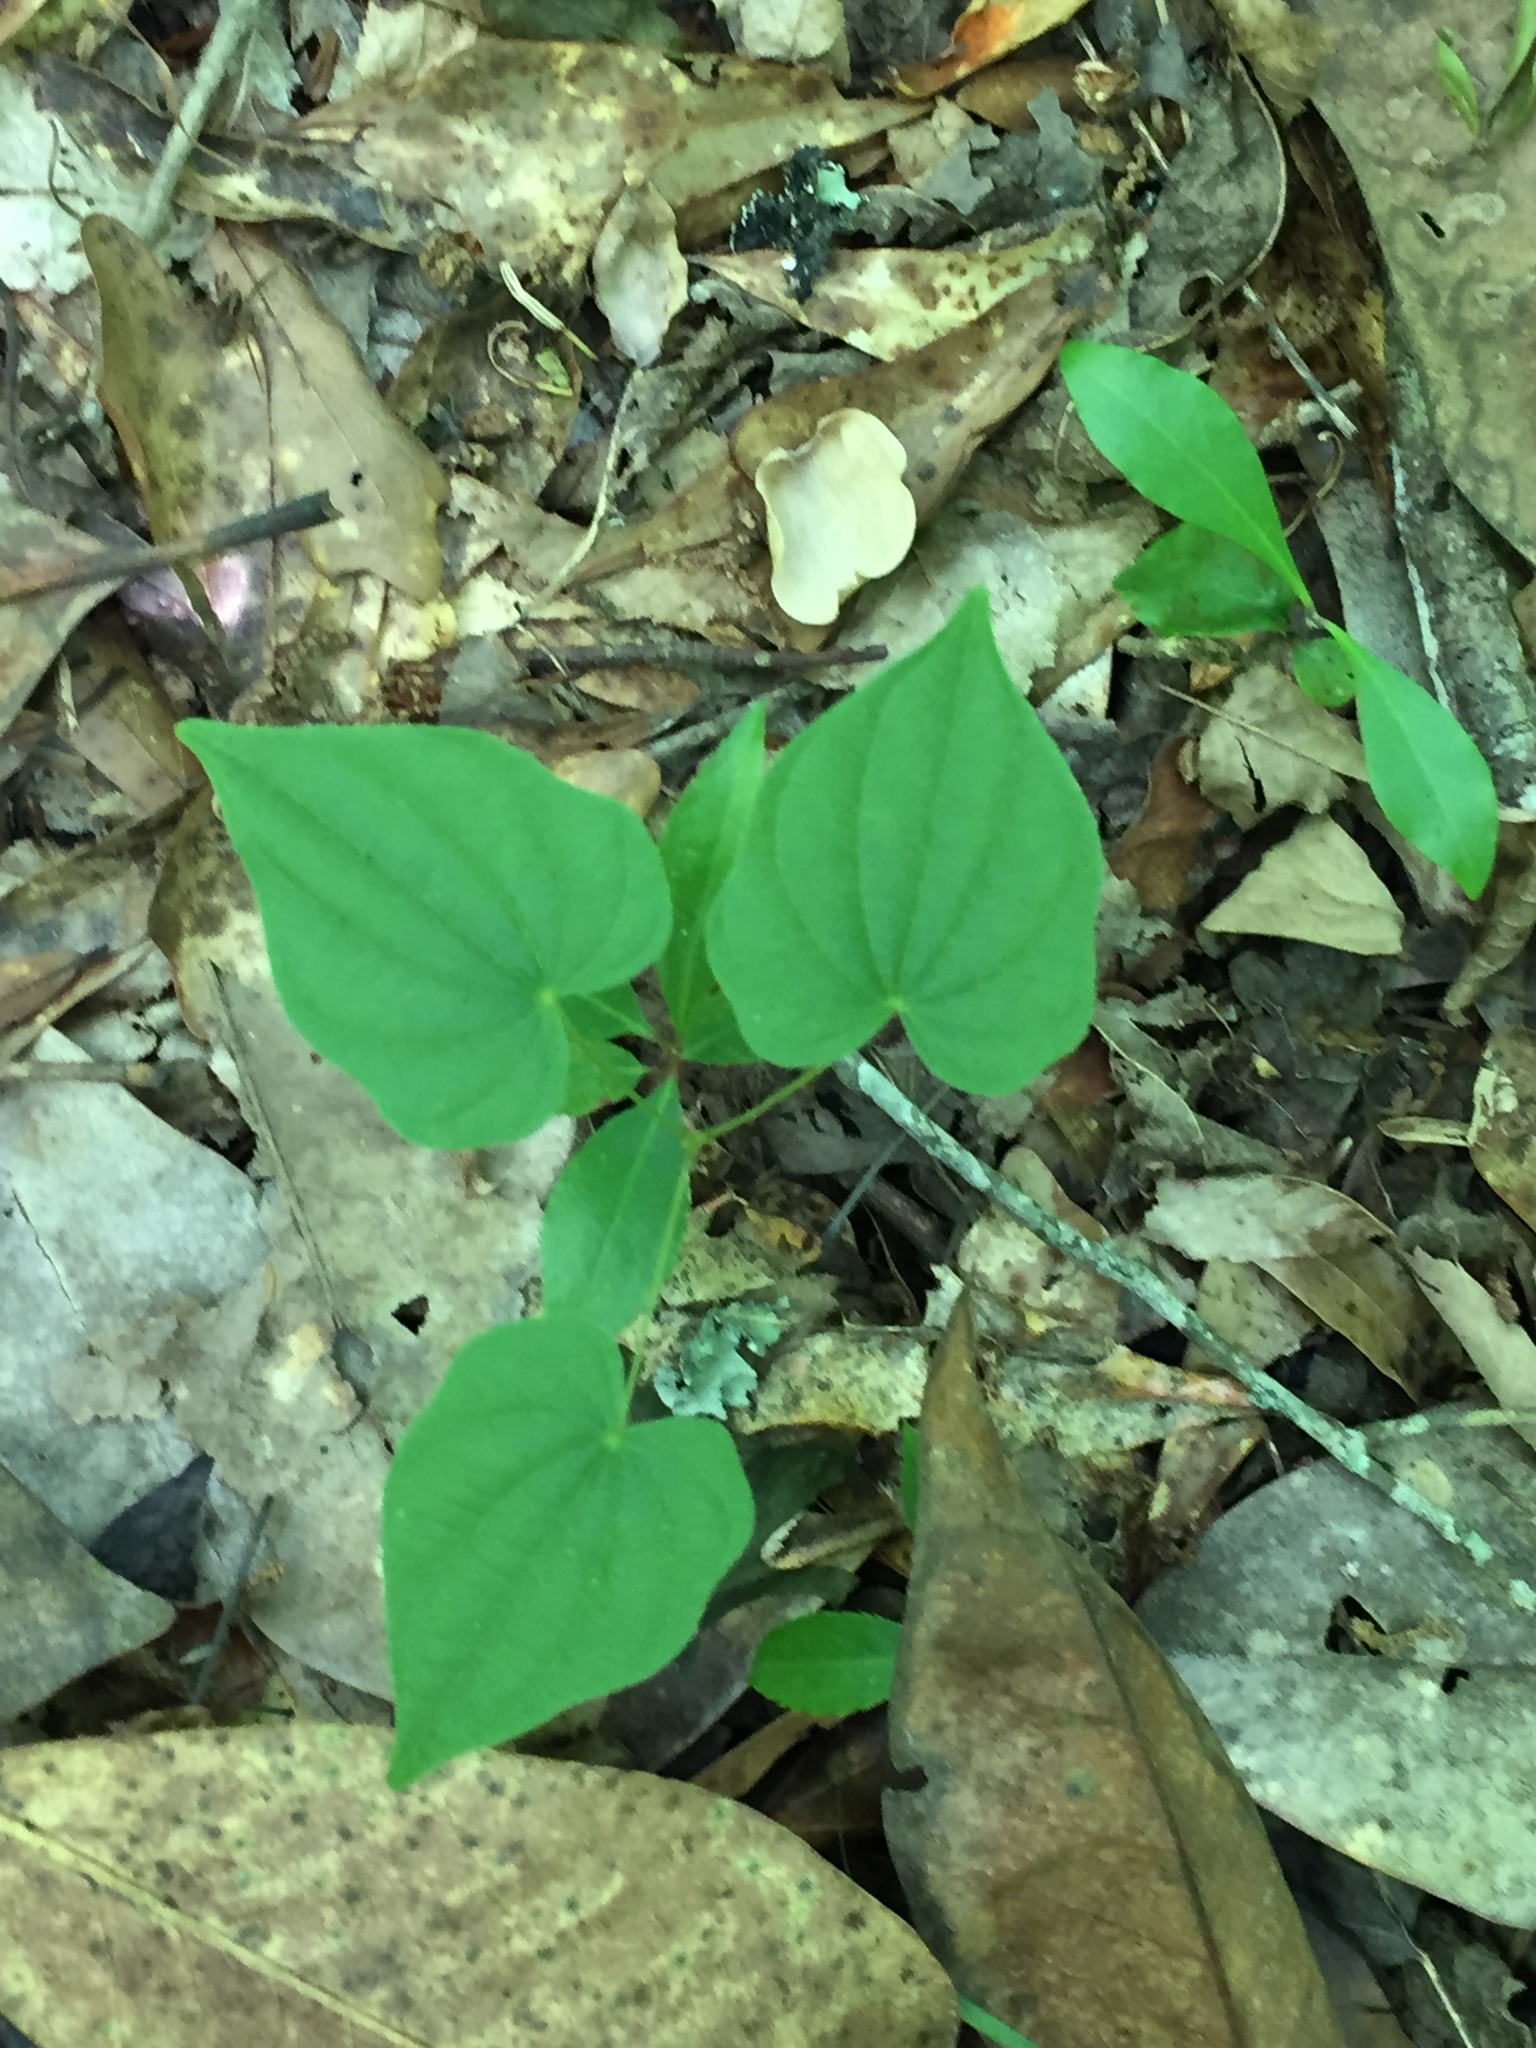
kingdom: Plantae
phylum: Tracheophyta
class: Liliopsida
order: Dioscoreales
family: Dioscoreaceae
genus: Dioscorea
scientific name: Dioscorea villosa
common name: Wild yam
